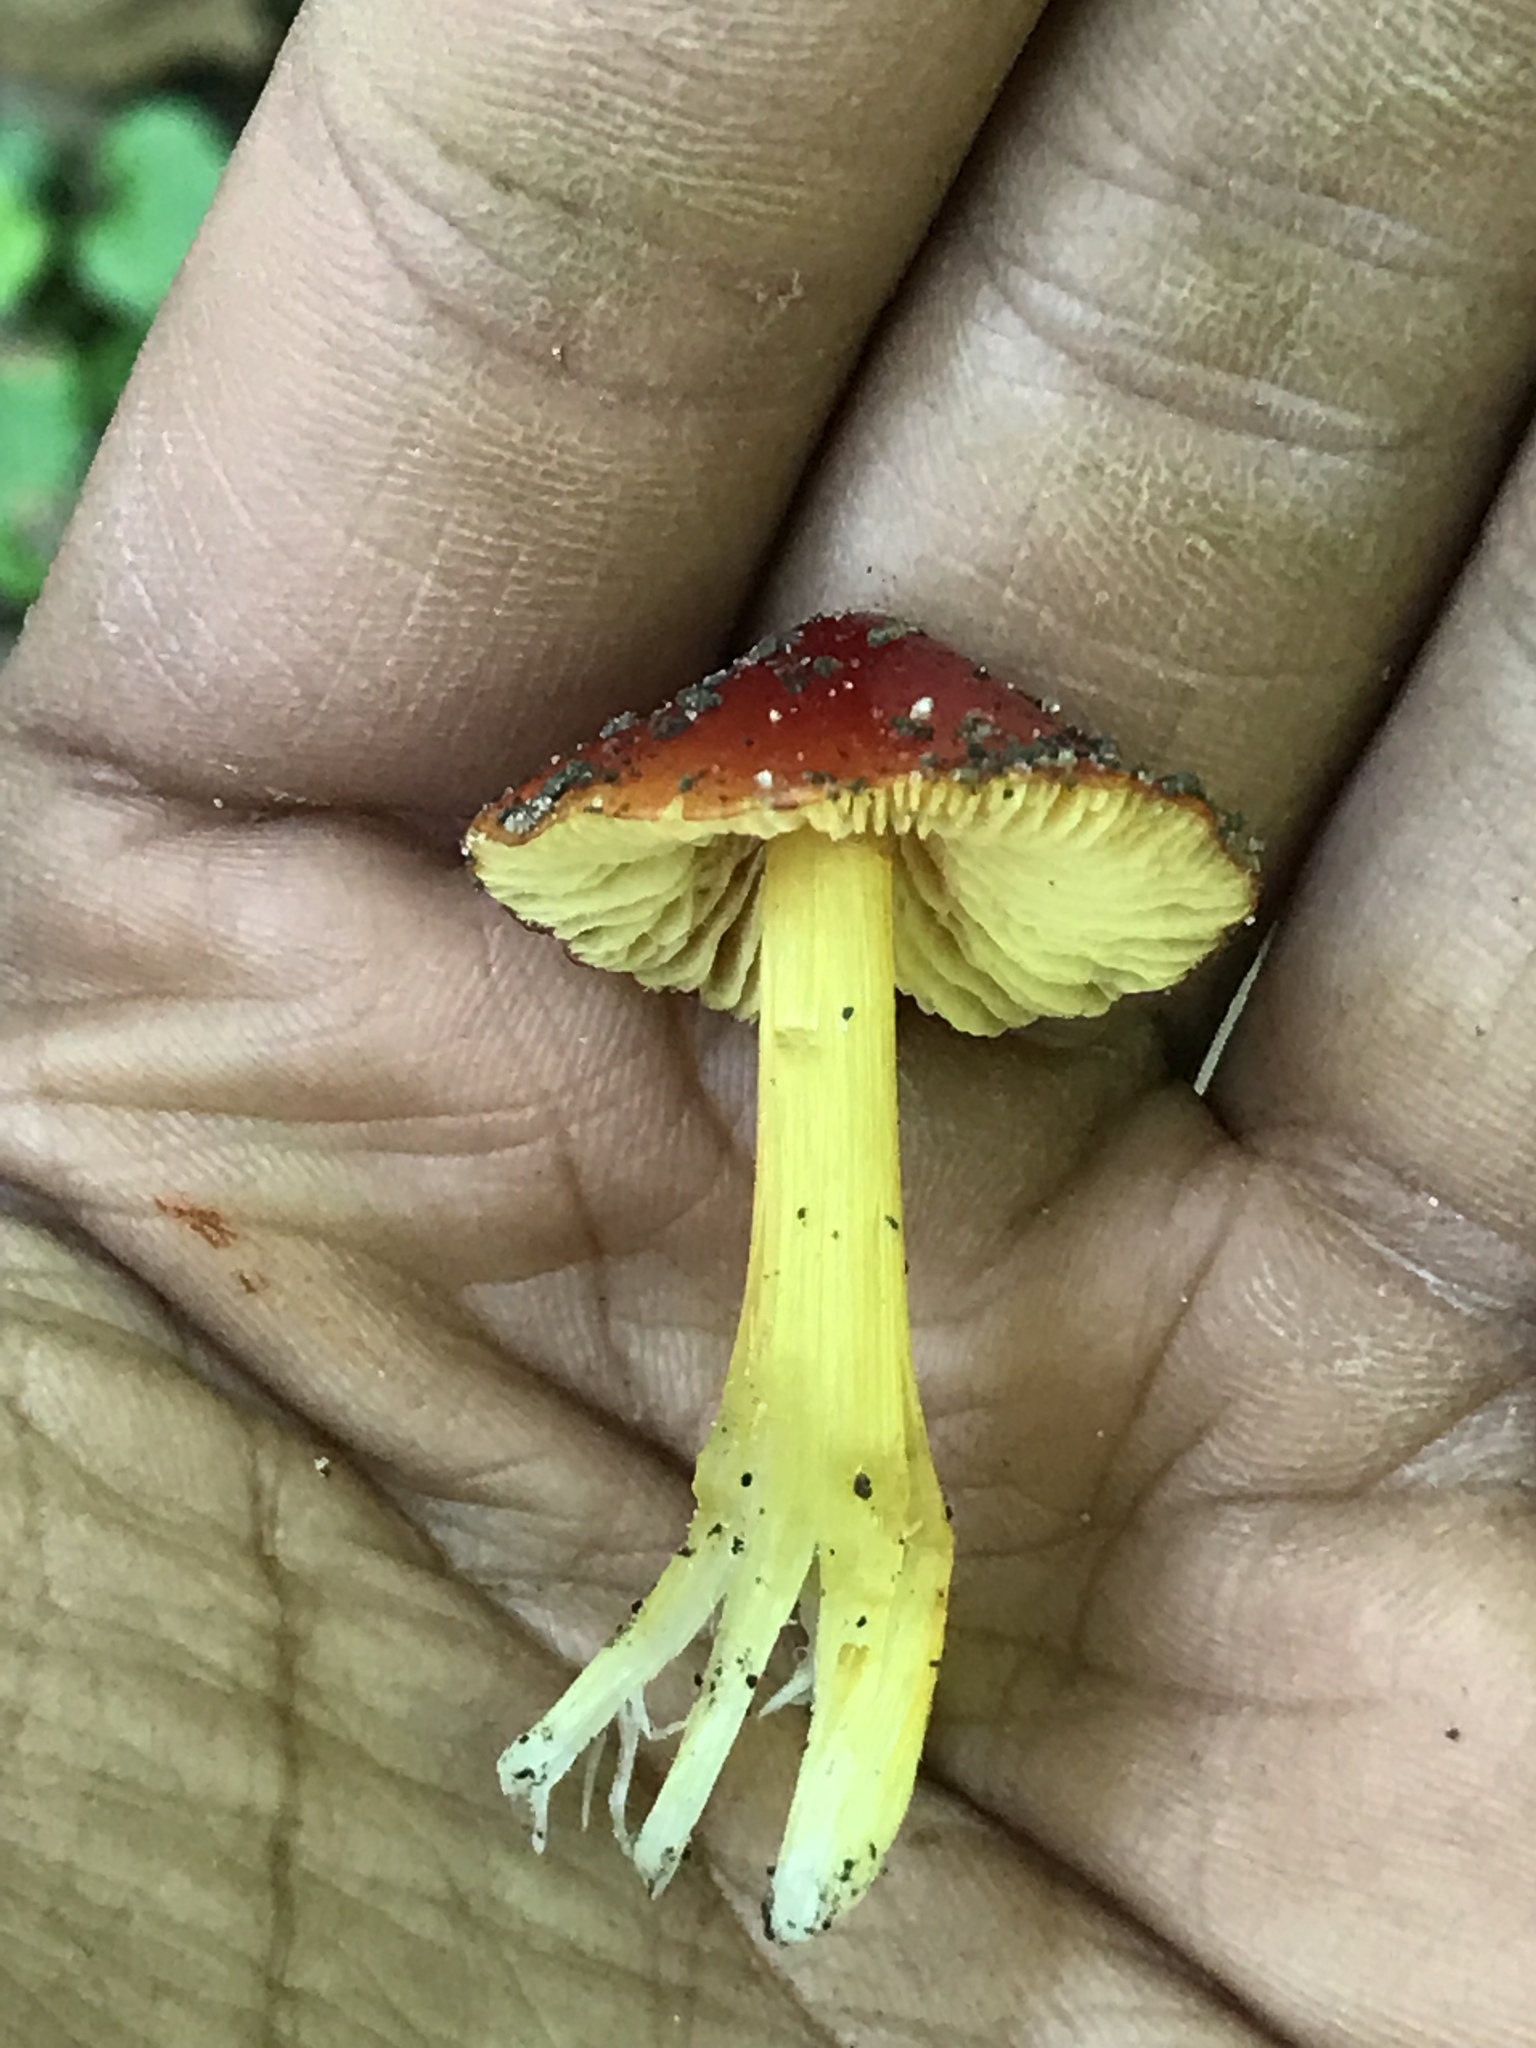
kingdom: Fungi
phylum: Basidiomycota
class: Agaricomycetes
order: Agaricales
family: Hygrophoraceae
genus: Hygrocybe
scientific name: Hygrocybe conica
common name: Blackening wax-cap
